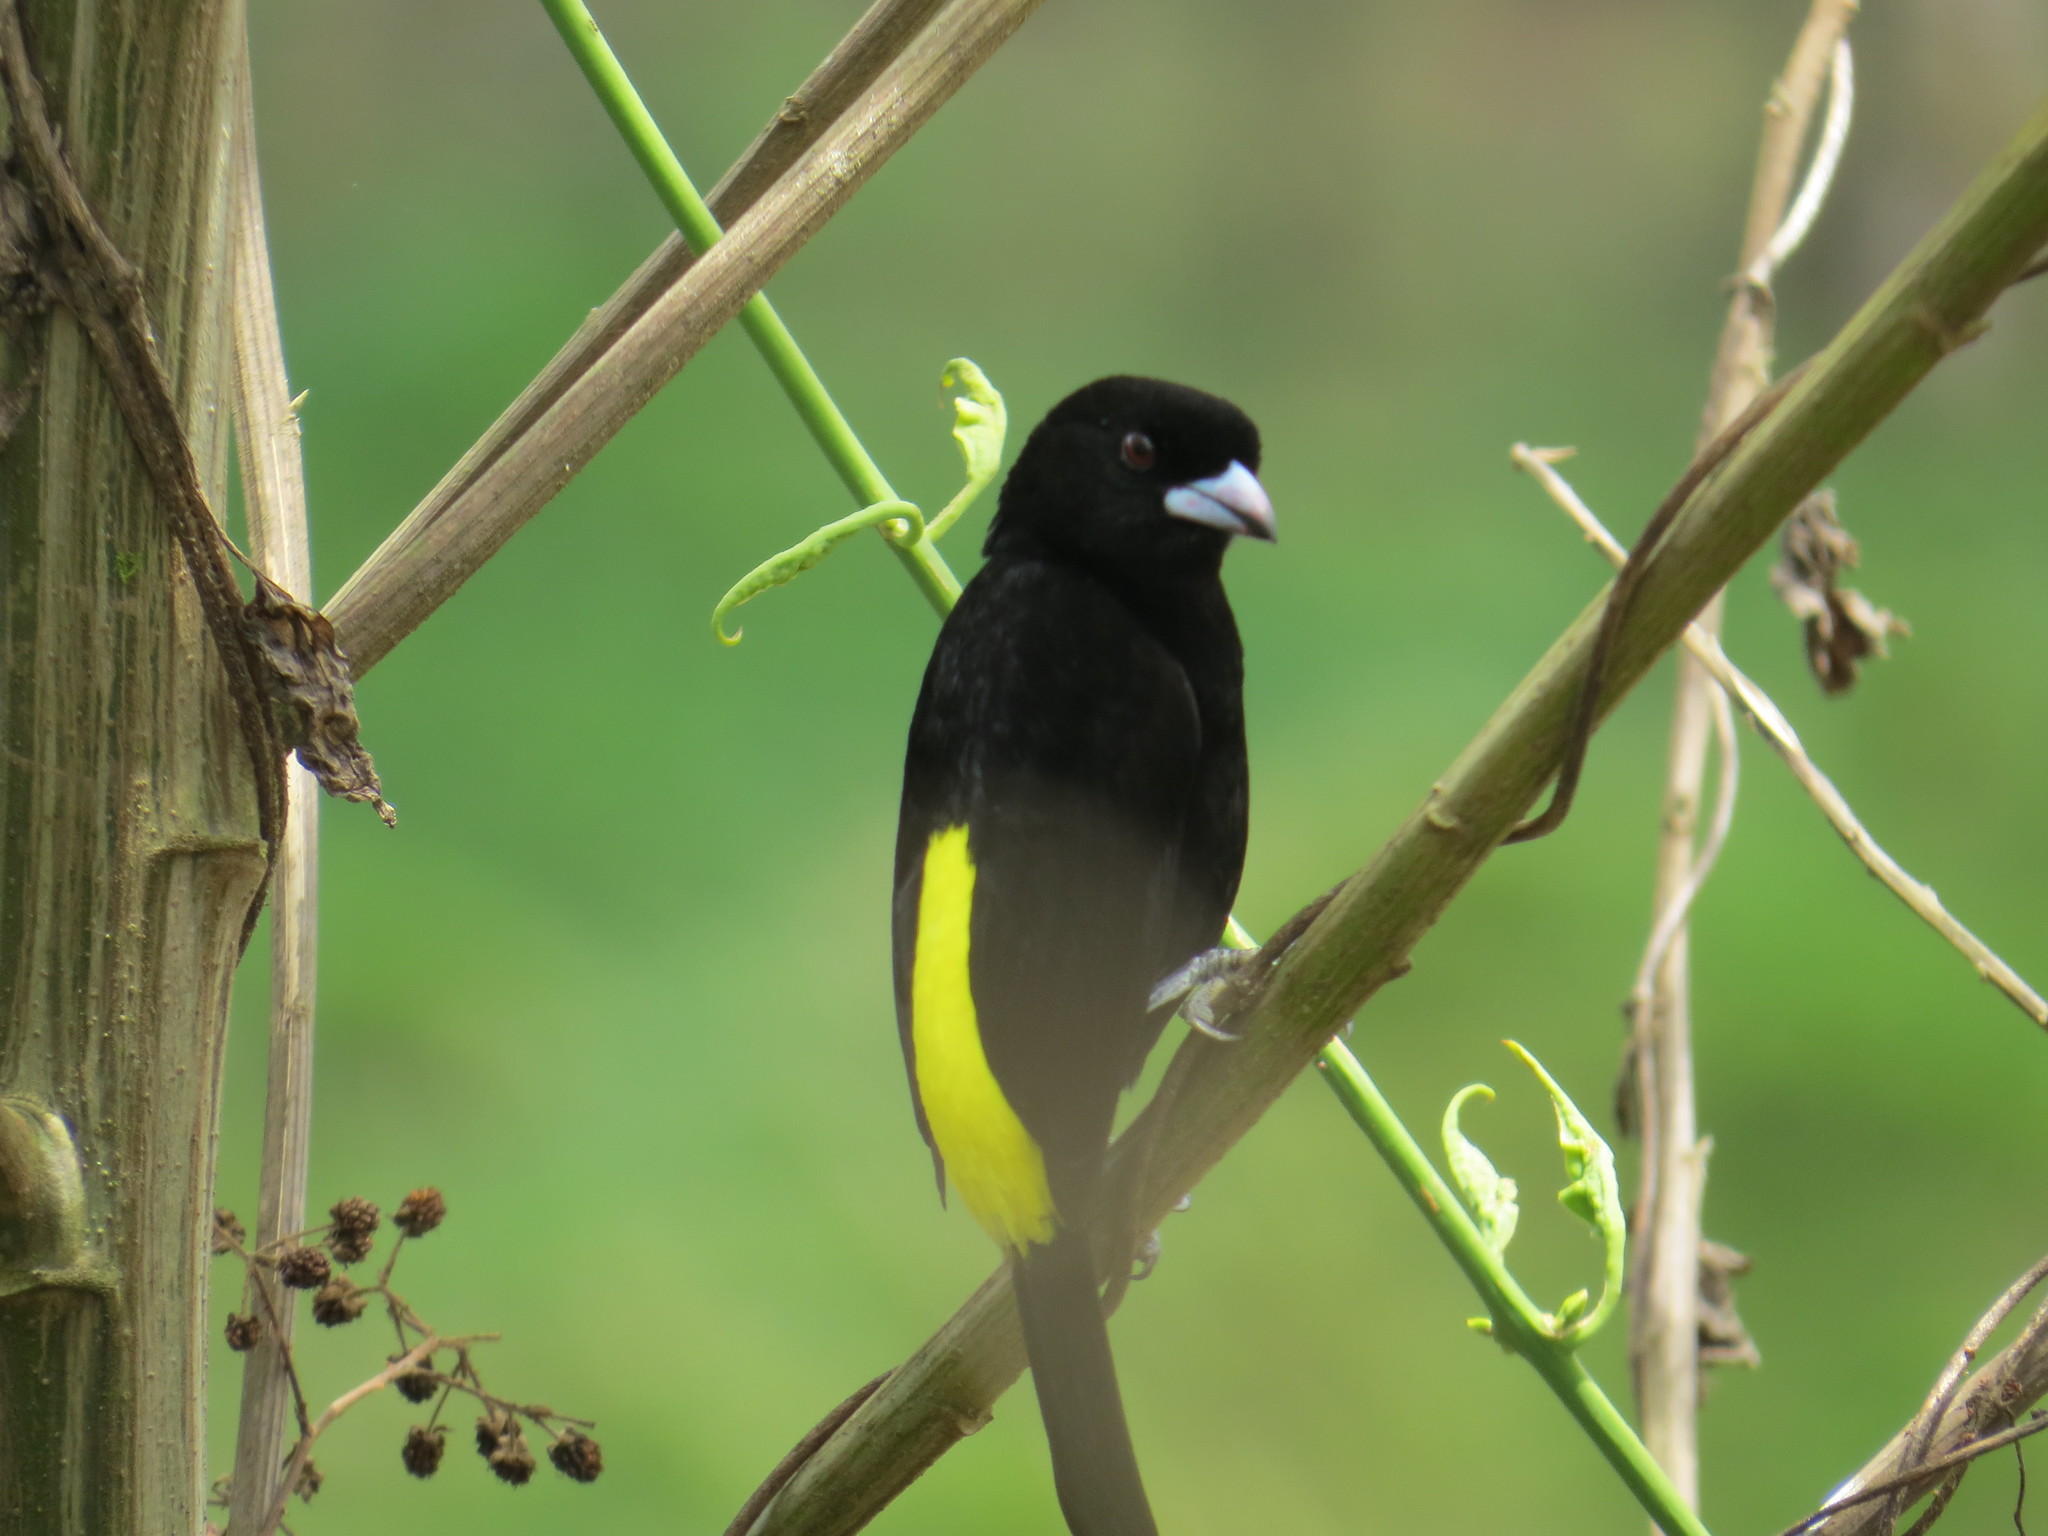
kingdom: Animalia
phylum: Chordata
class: Aves
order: Passeriformes
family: Thraupidae
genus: Ramphocelus
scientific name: Ramphocelus icteronotus
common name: Lemon-rumped tanager
